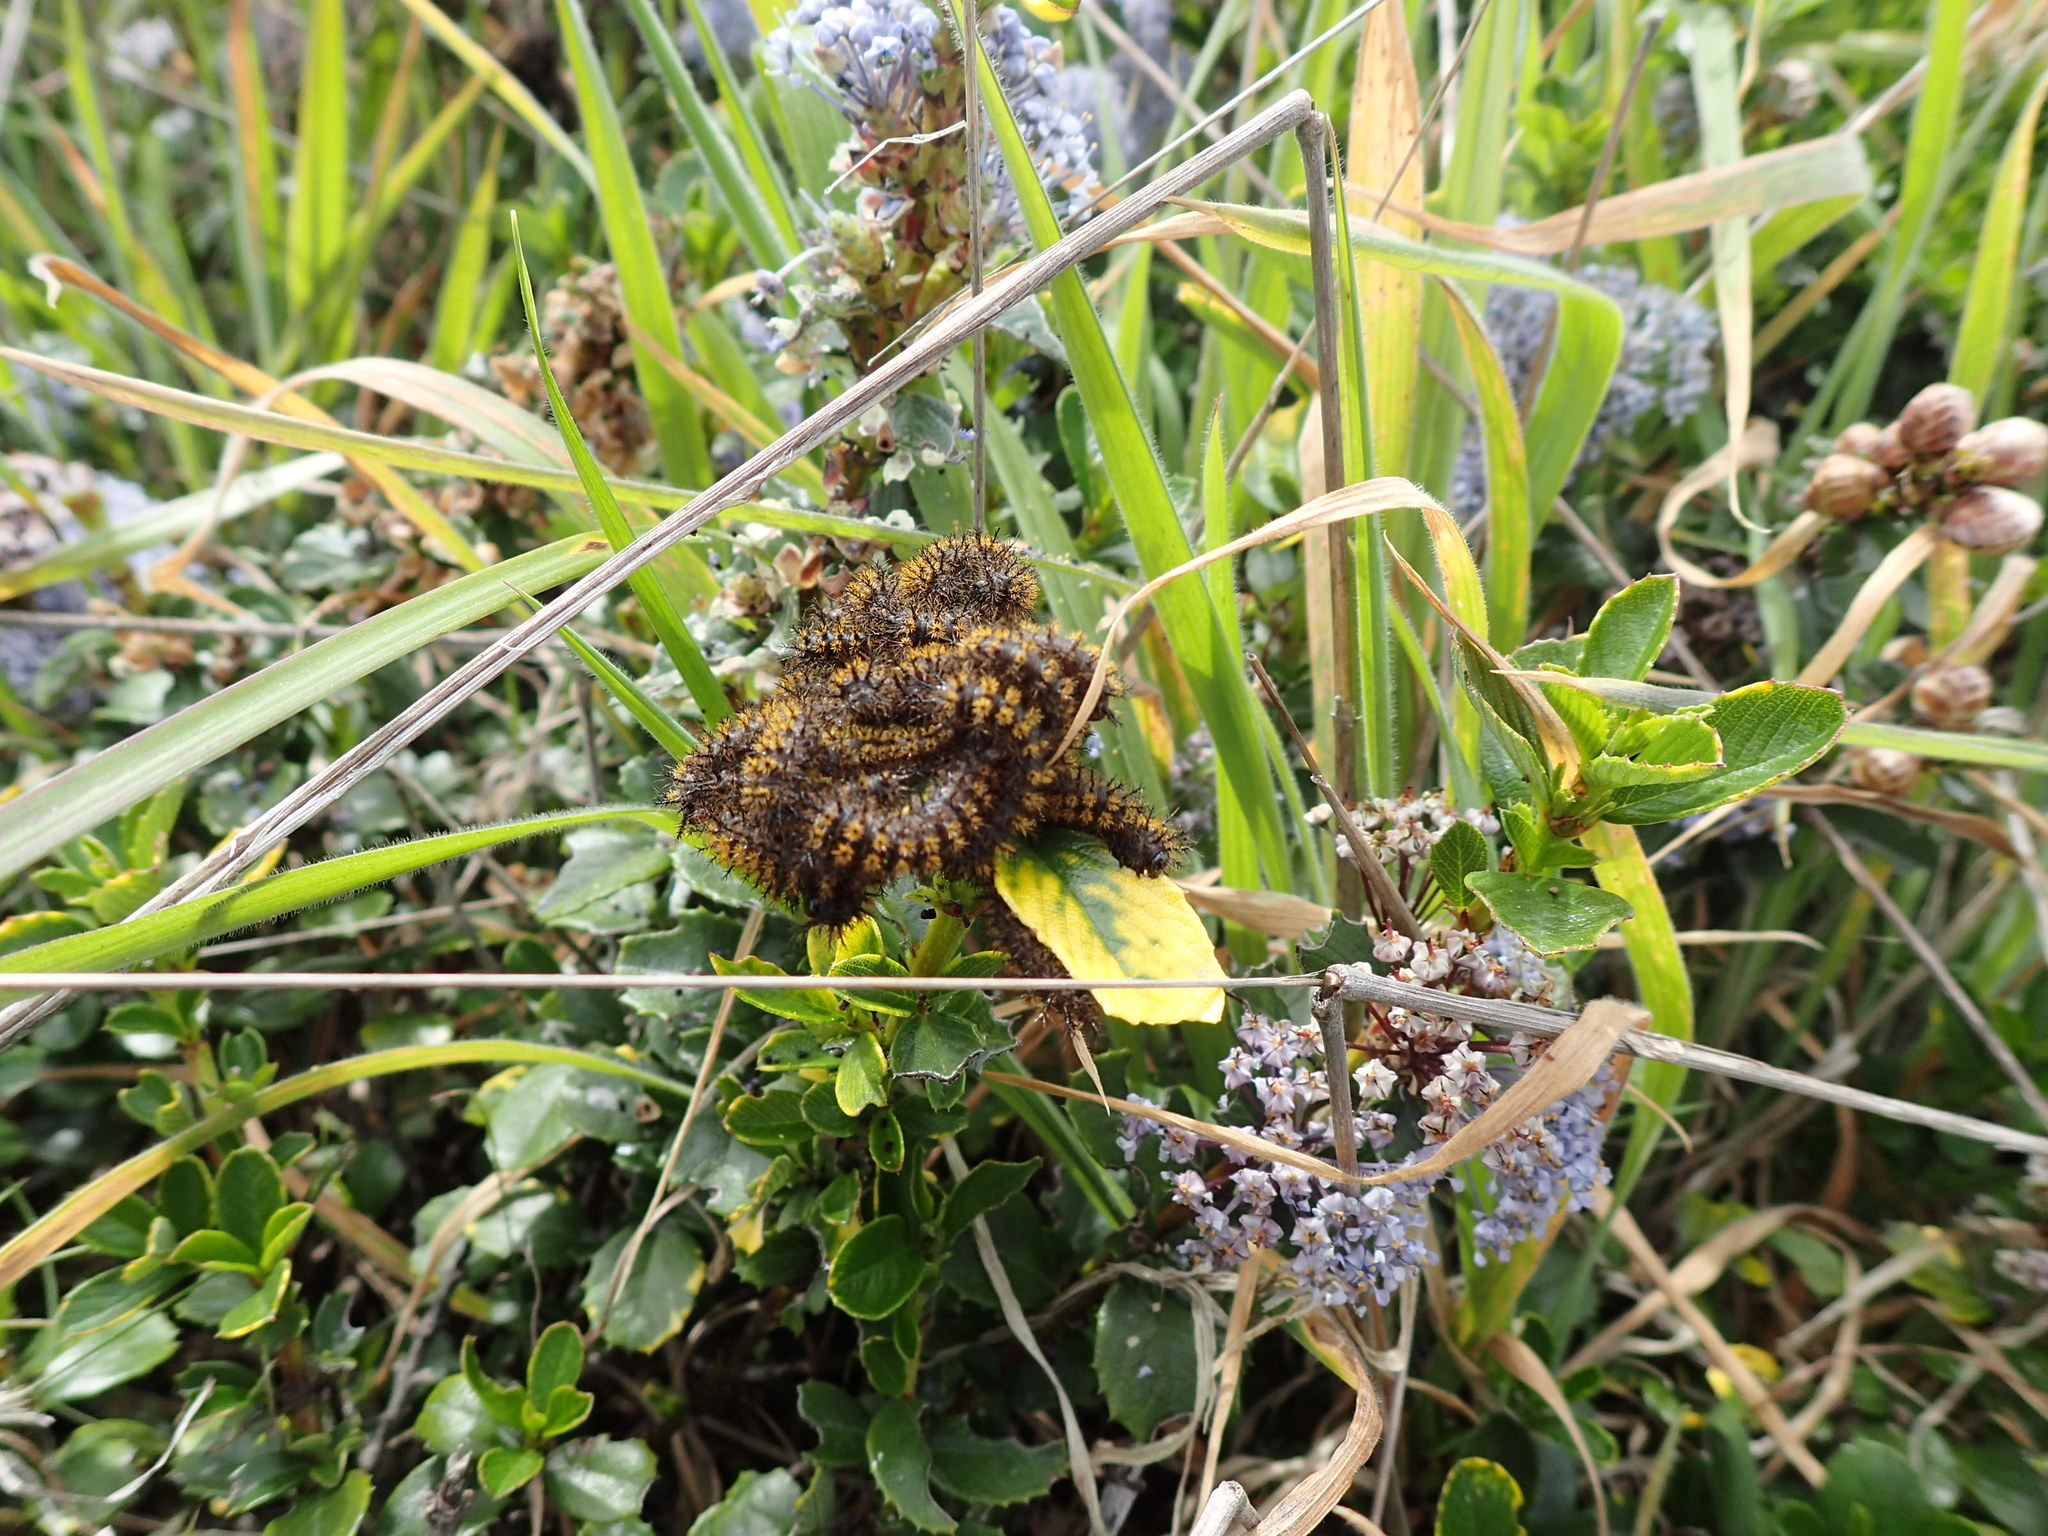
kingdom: Plantae
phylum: Tracheophyta
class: Magnoliopsida
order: Rosales
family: Rhamnaceae
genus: Ceanothus
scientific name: Ceanothus gloriosus
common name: Point reyes ceanothus
